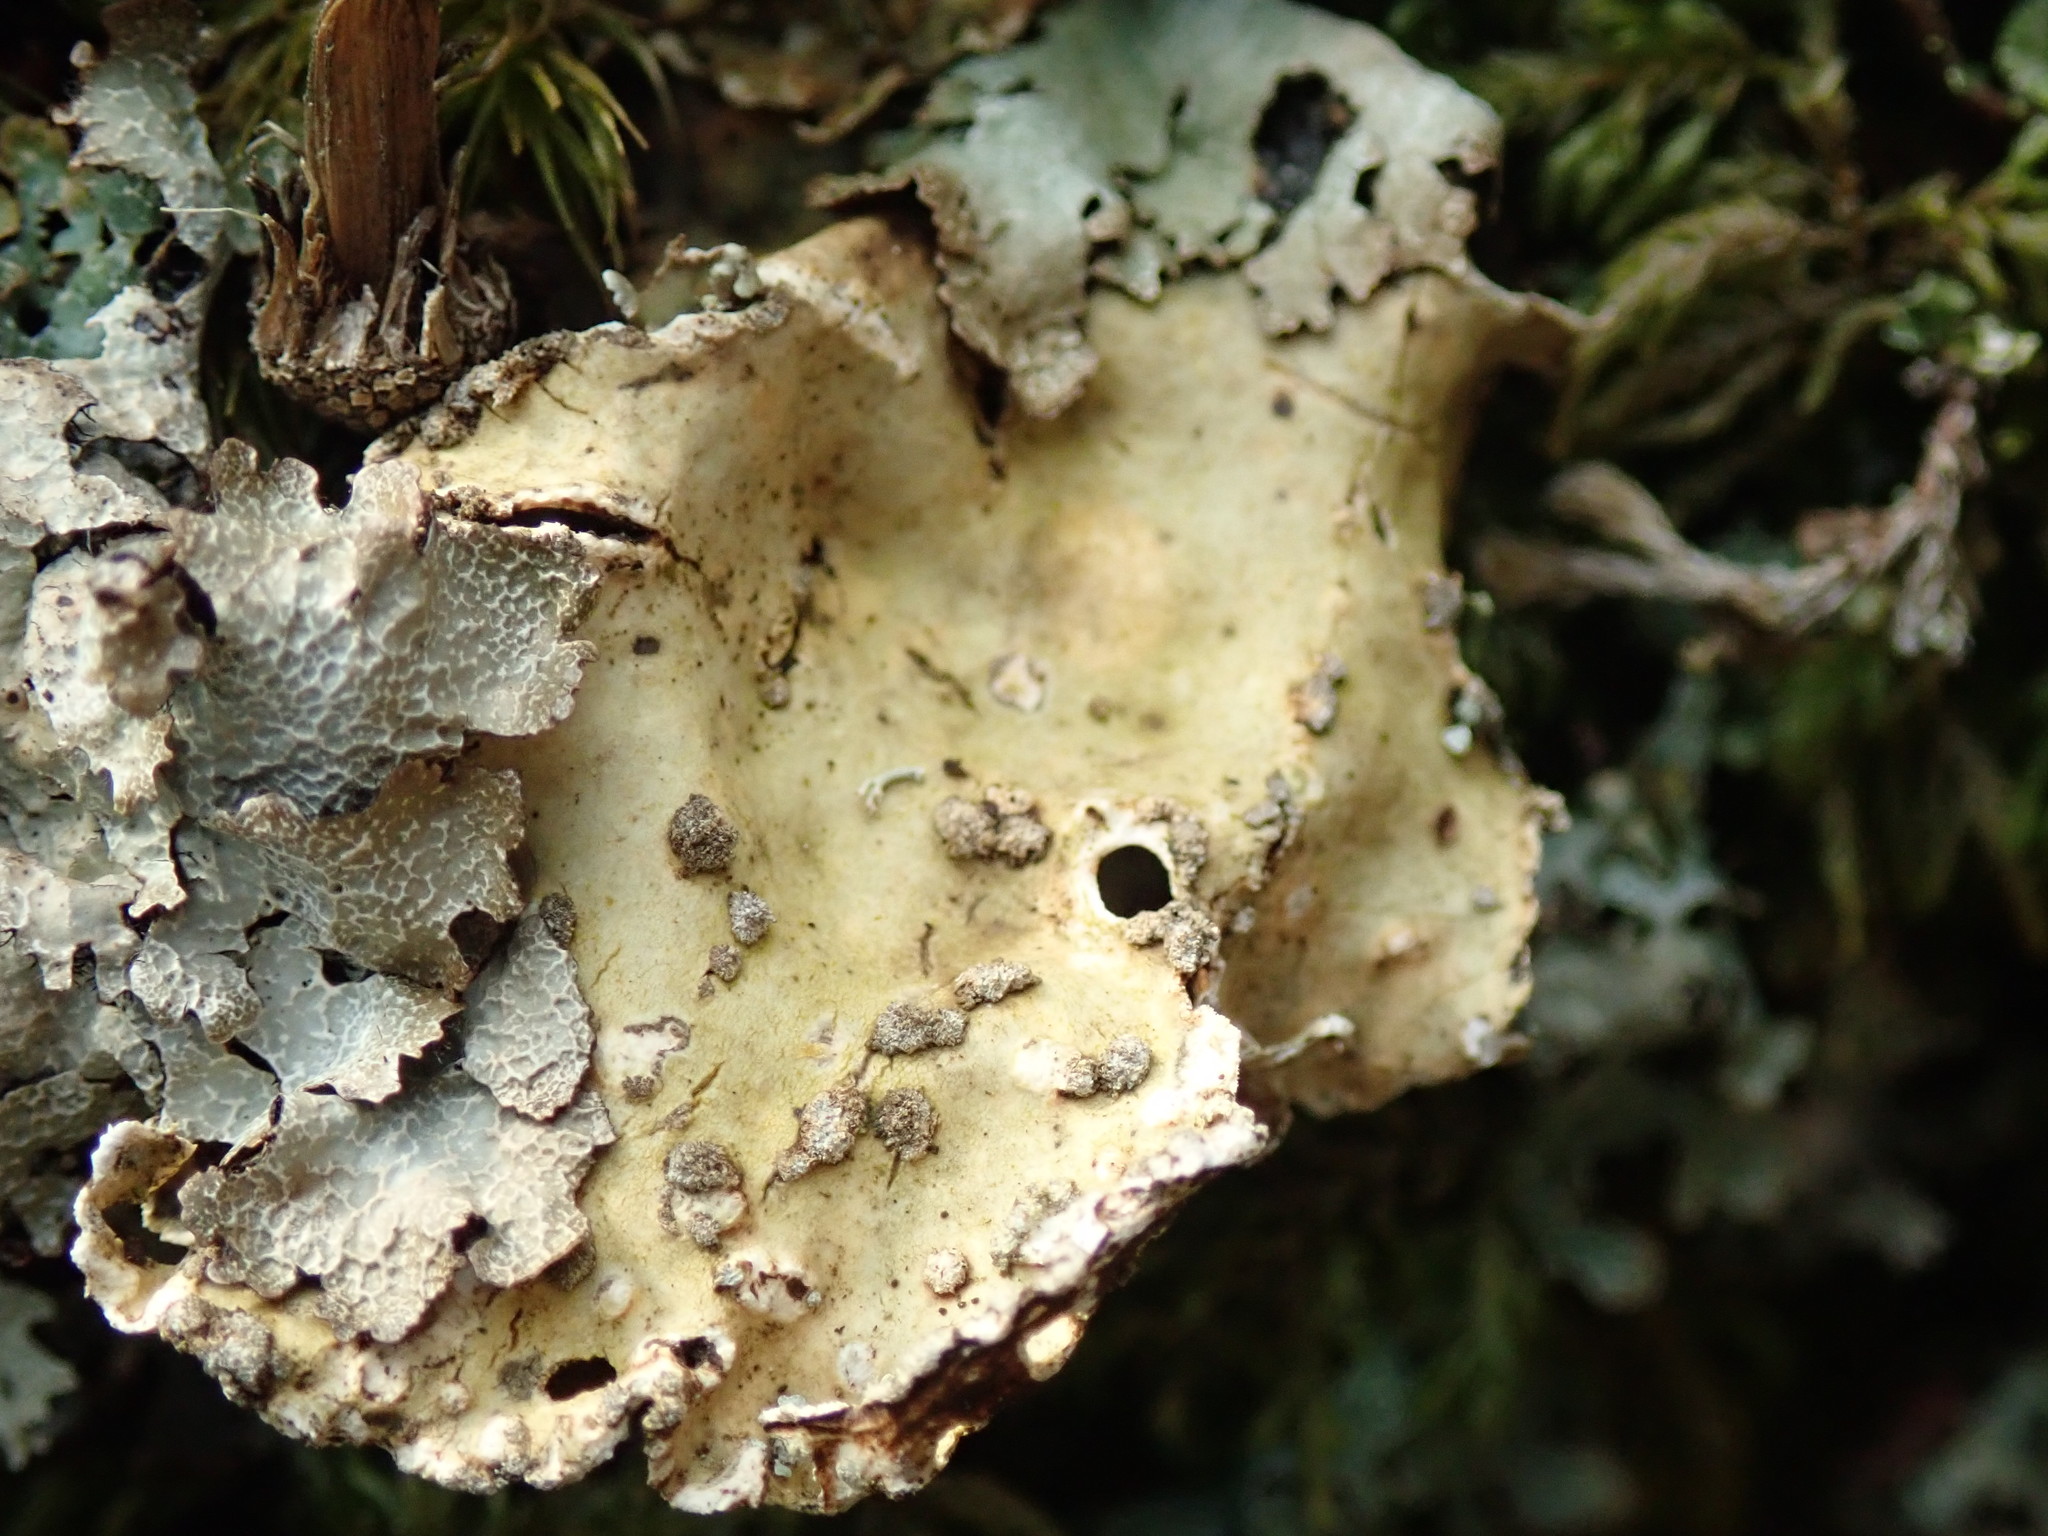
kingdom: Fungi
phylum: Ascomycota
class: Lecanoromycetes
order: Peltigerales
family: Lobariaceae
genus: Lobarina
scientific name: Lobarina scrobiculata
